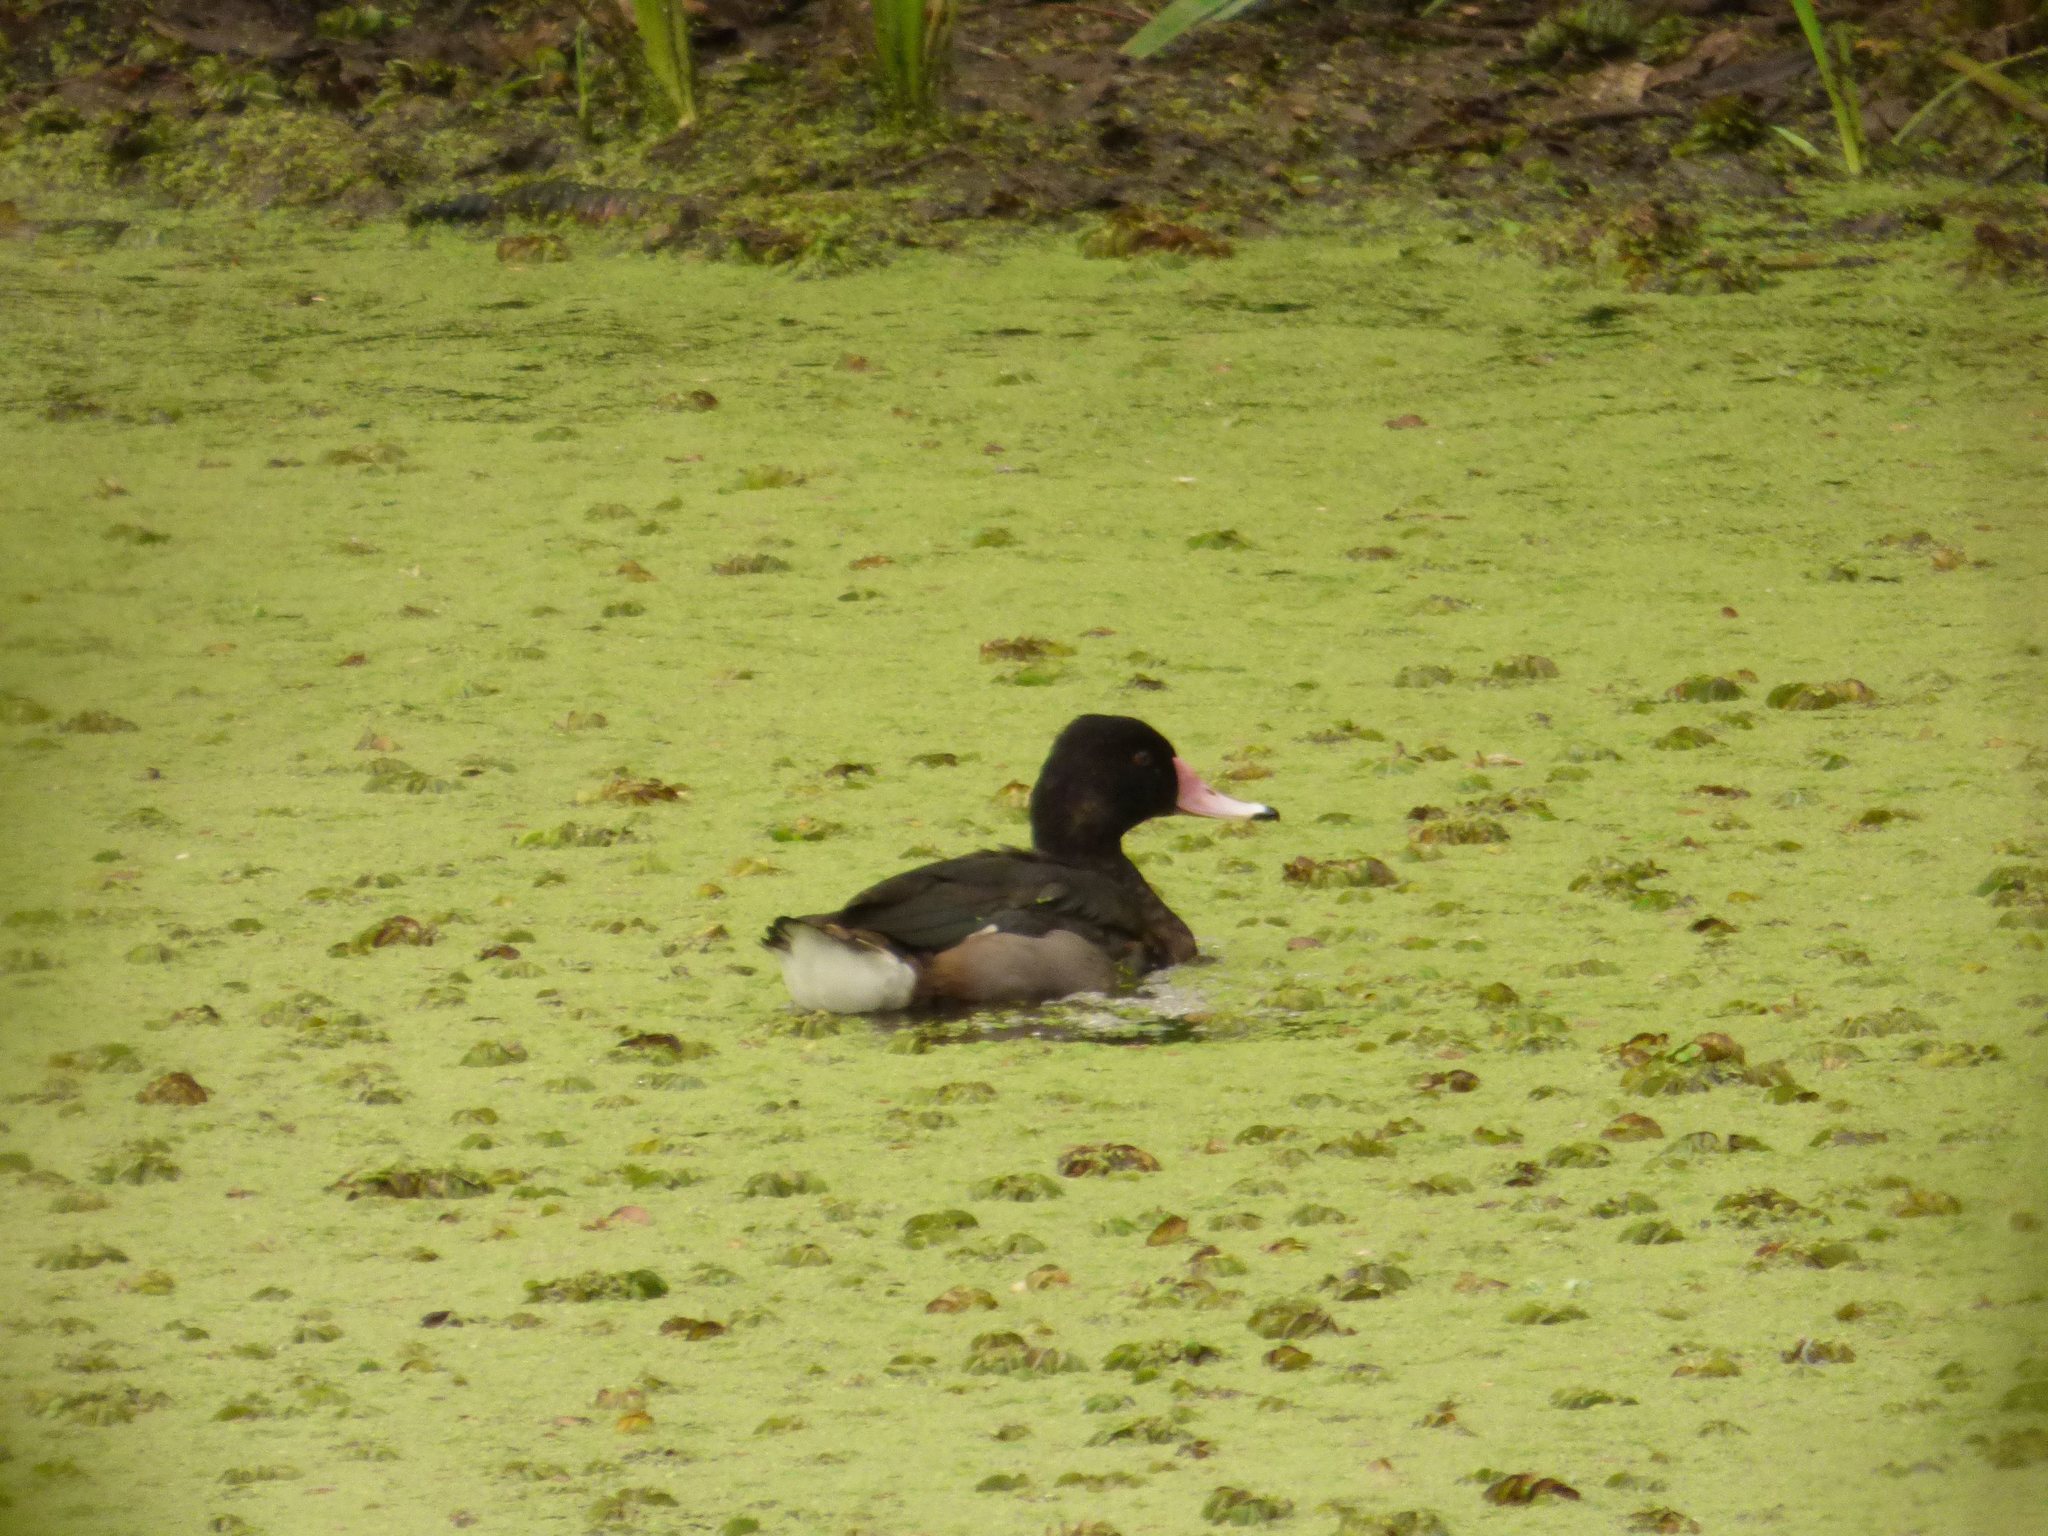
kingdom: Animalia
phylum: Chordata
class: Aves
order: Anseriformes
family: Anatidae
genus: Netta
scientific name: Netta peposaca
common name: Rosy-billed pochard
